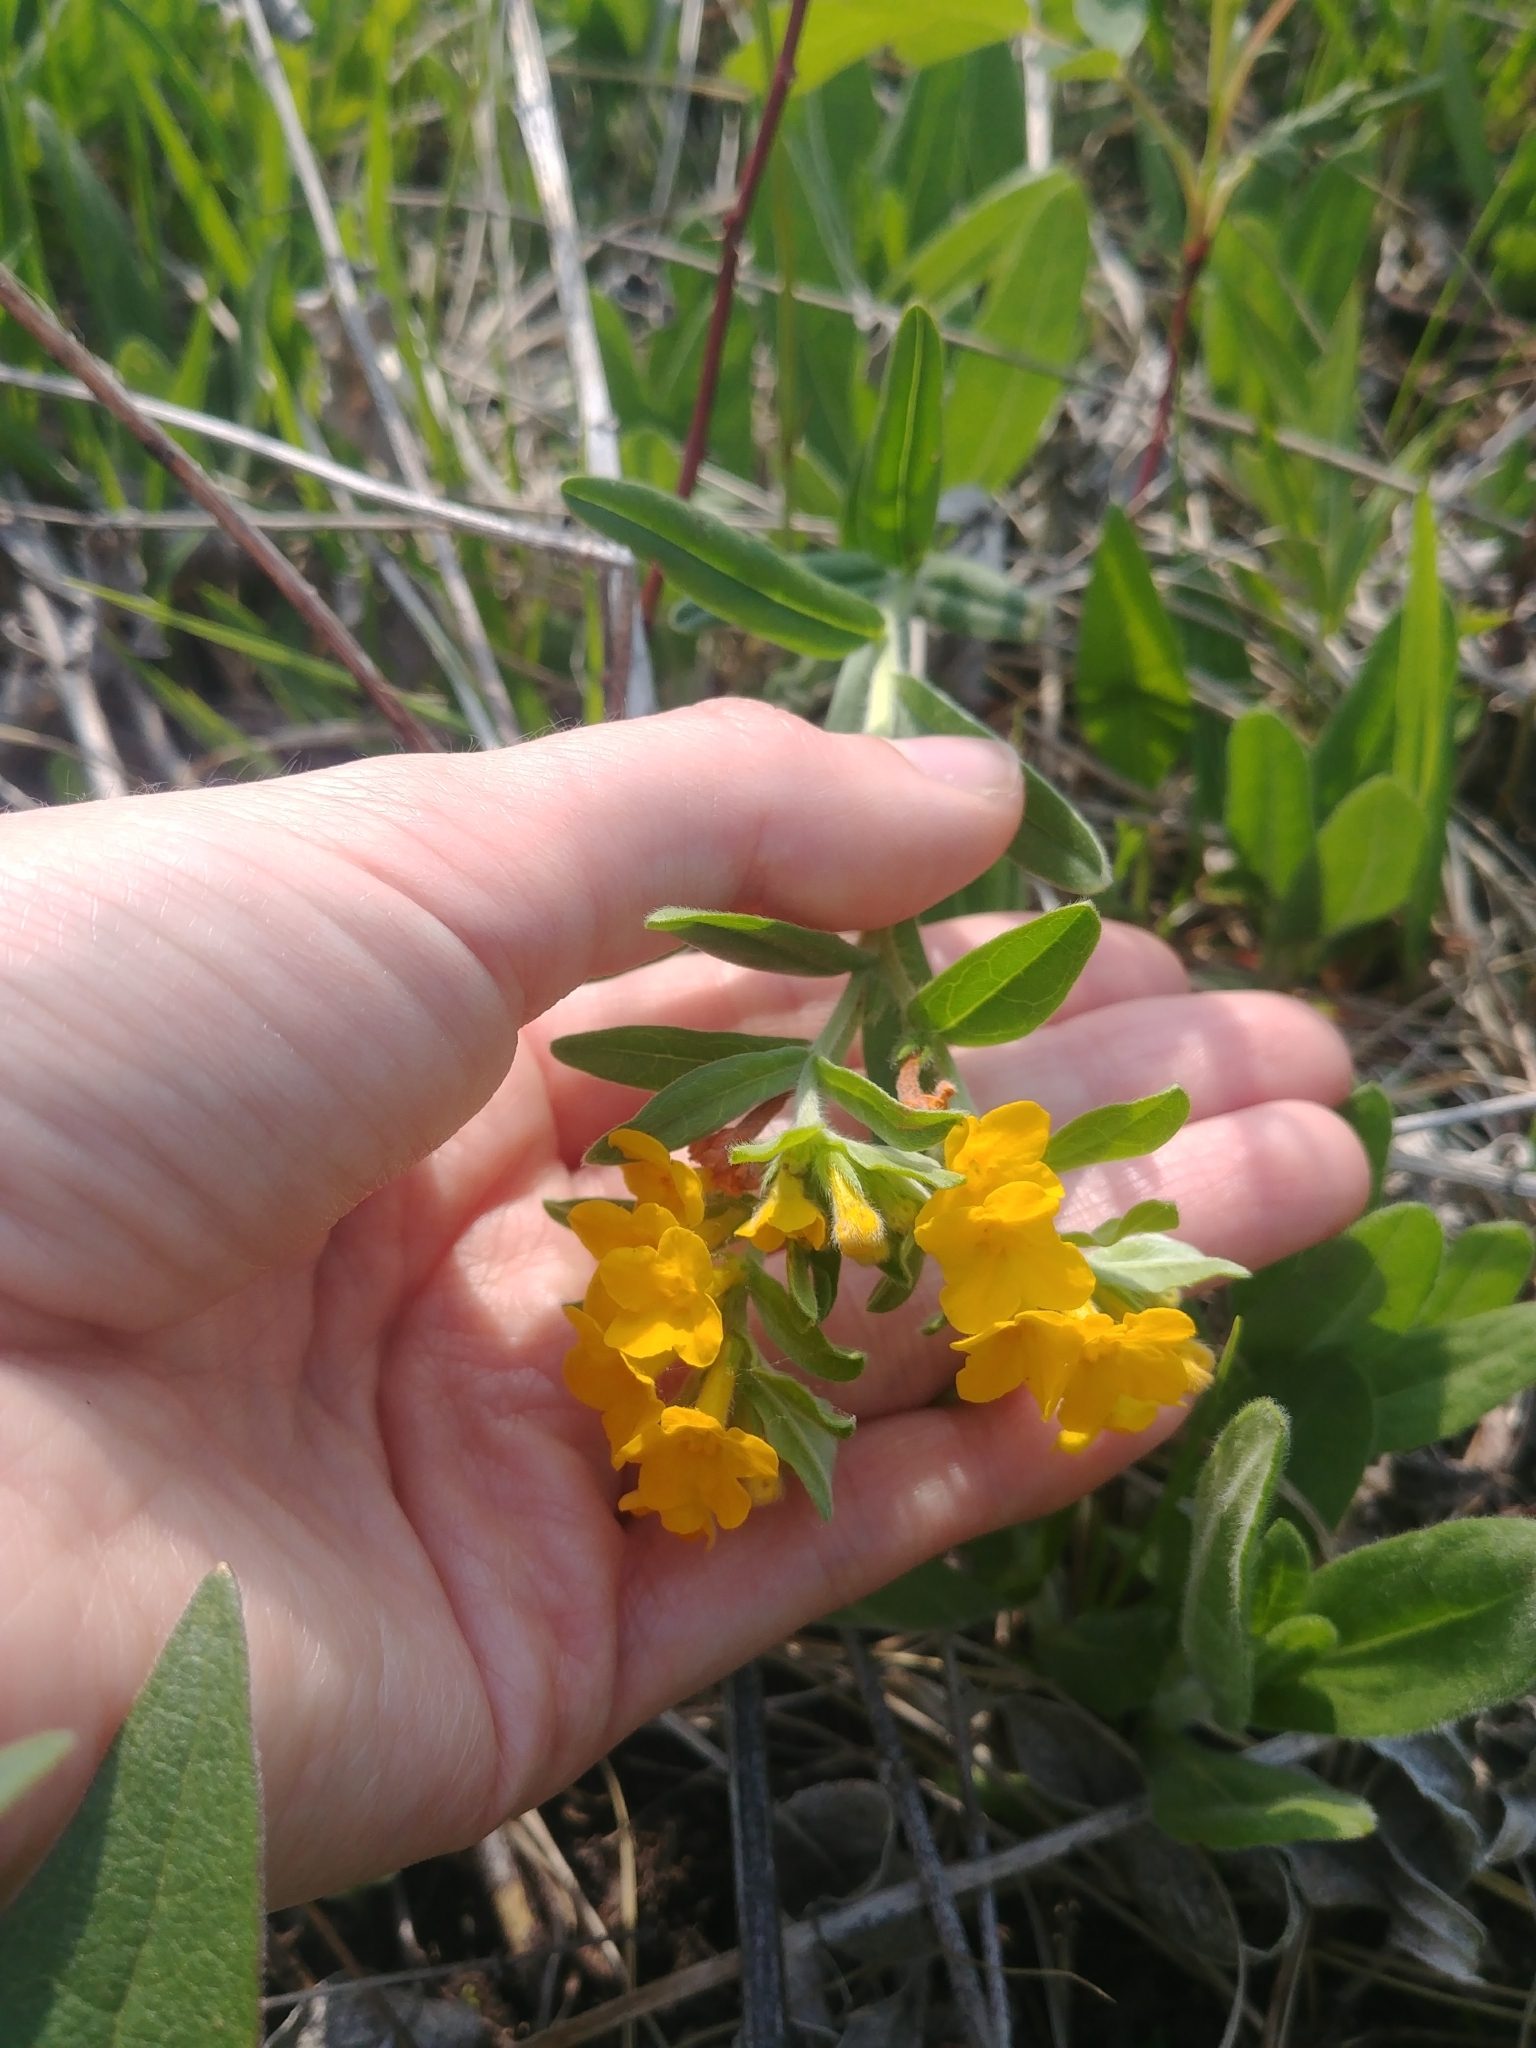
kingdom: Plantae
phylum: Tracheophyta
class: Magnoliopsida
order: Boraginales
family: Boraginaceae
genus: Lithospermum
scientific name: Lithospermum canescens
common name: Hoary puccoon
